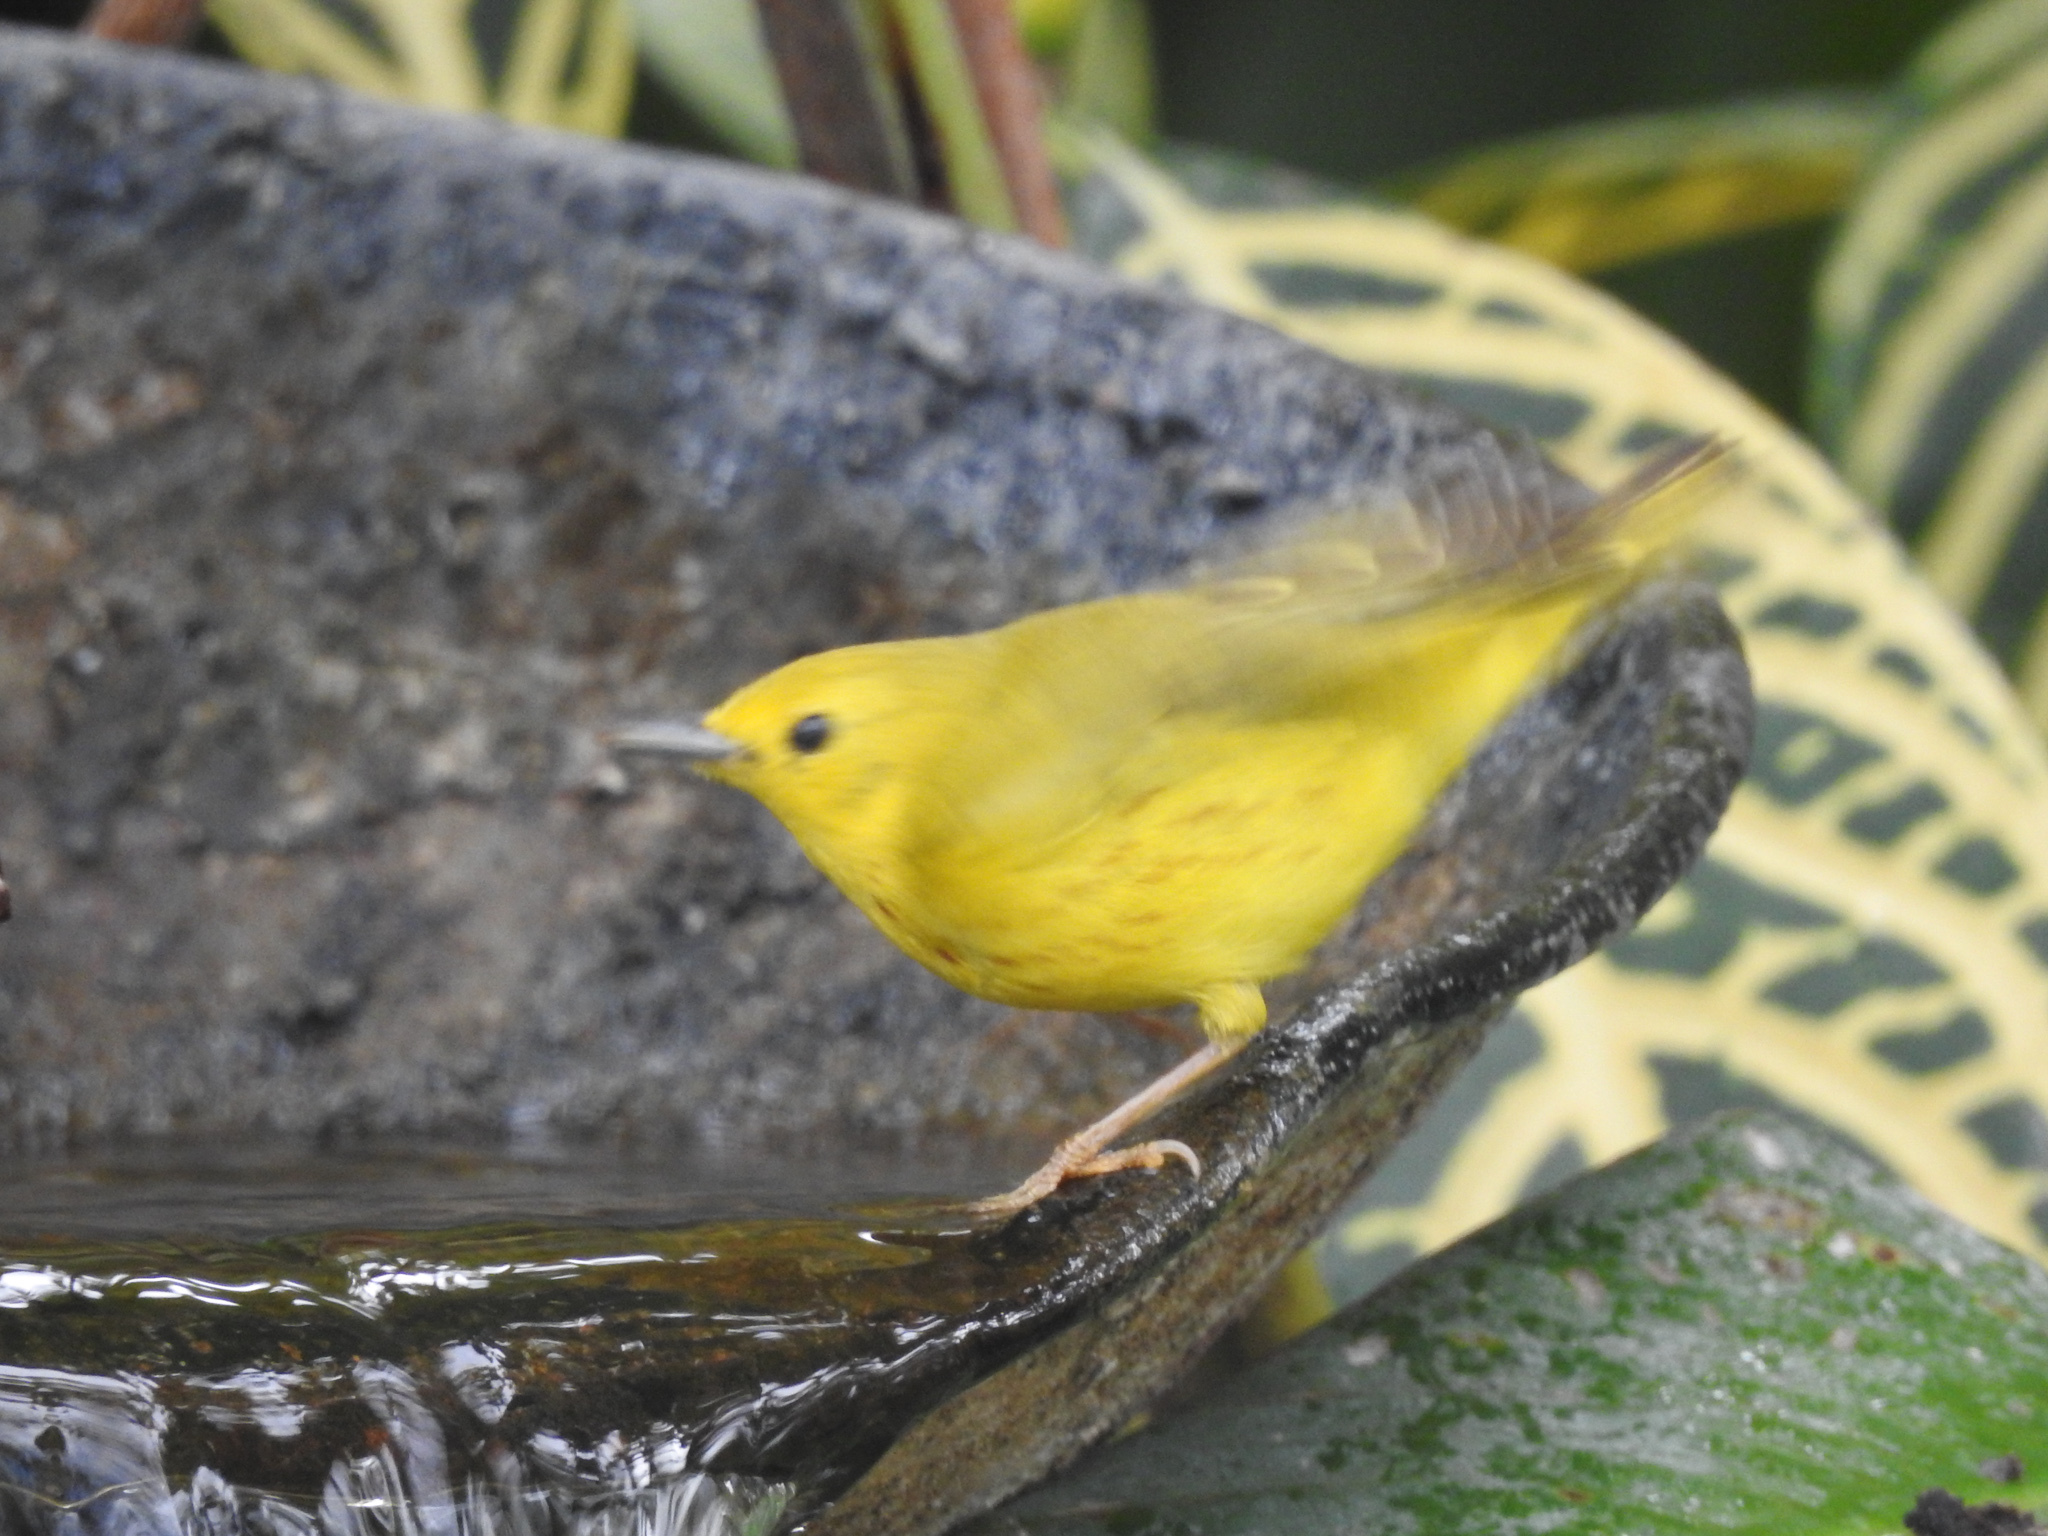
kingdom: Animalia
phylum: Chordata
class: Aves
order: Passeriformes
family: Parulidae
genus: Setophaga
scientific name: Setophaga petechia
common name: Yellow warbler
